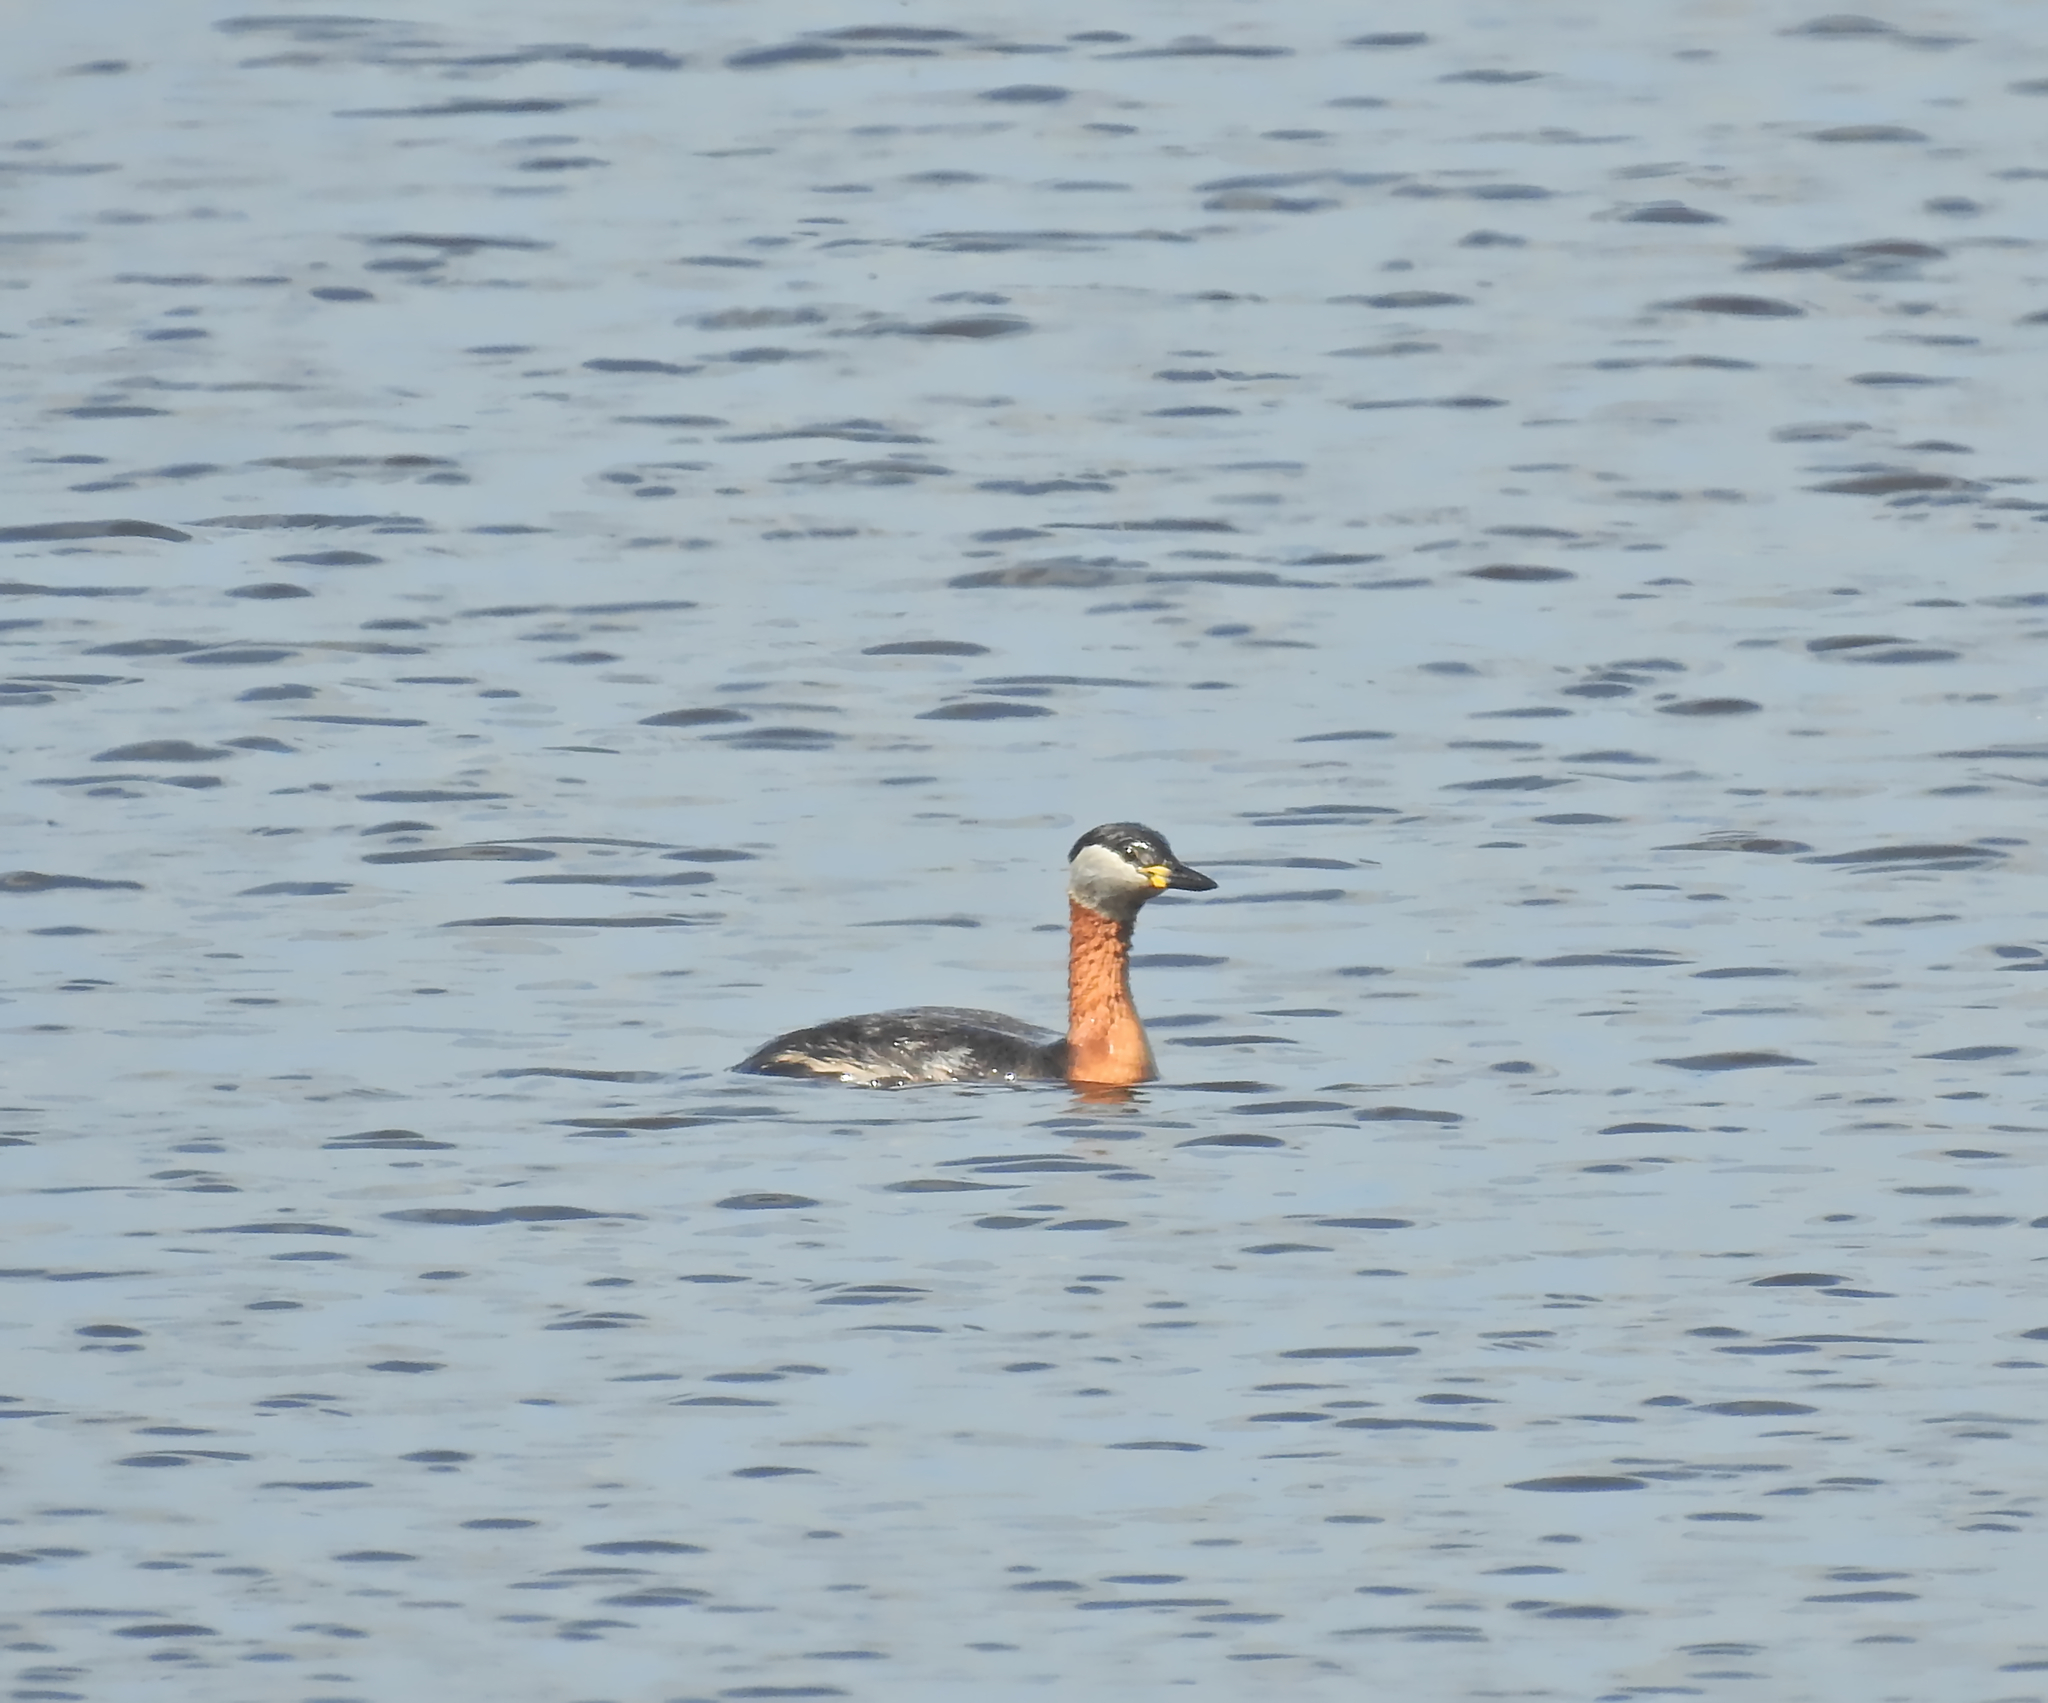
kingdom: Animalia
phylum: Chordata
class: Aves
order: Podicipediformes
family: Podicipedidae
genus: Podiceps
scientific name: Podiceps grisegena
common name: Red-necked grebe
